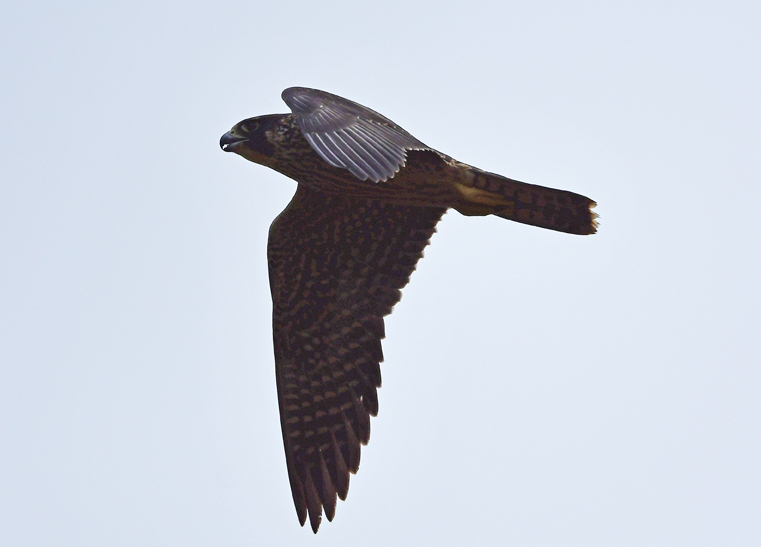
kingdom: Animalia
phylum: Chordata
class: Aves
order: Falconiformes
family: Falconidae
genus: Falco
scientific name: Falco peregrinus
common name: Peregrine falcon
